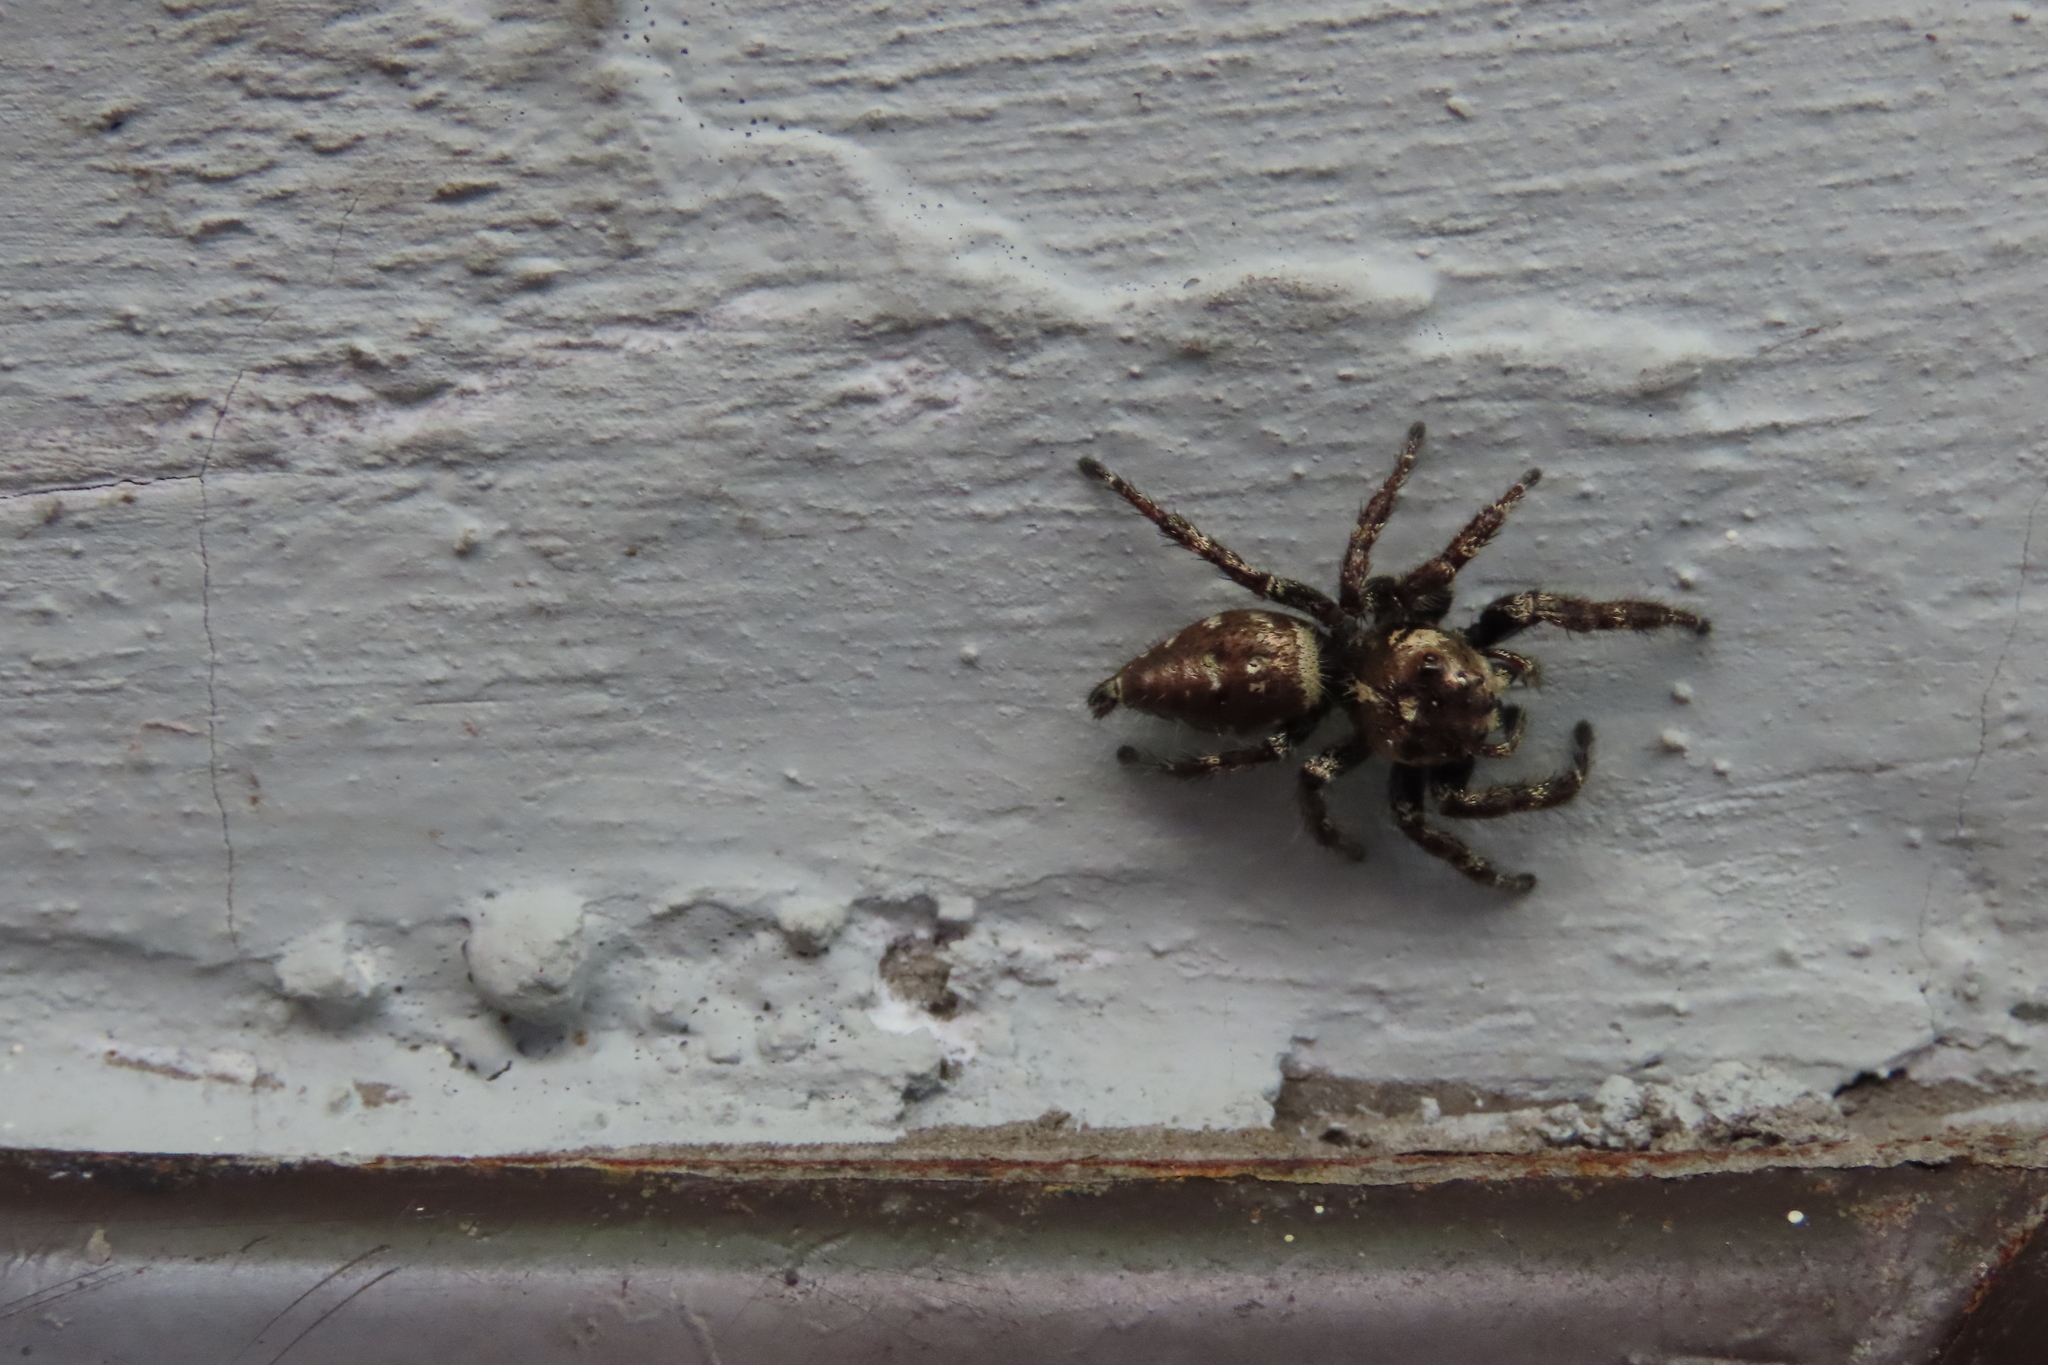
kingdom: Animalia
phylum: Arthropoda
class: Arachnida
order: Araneae
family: Salticidae
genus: Hyllus
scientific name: Hyllus semicupreus
